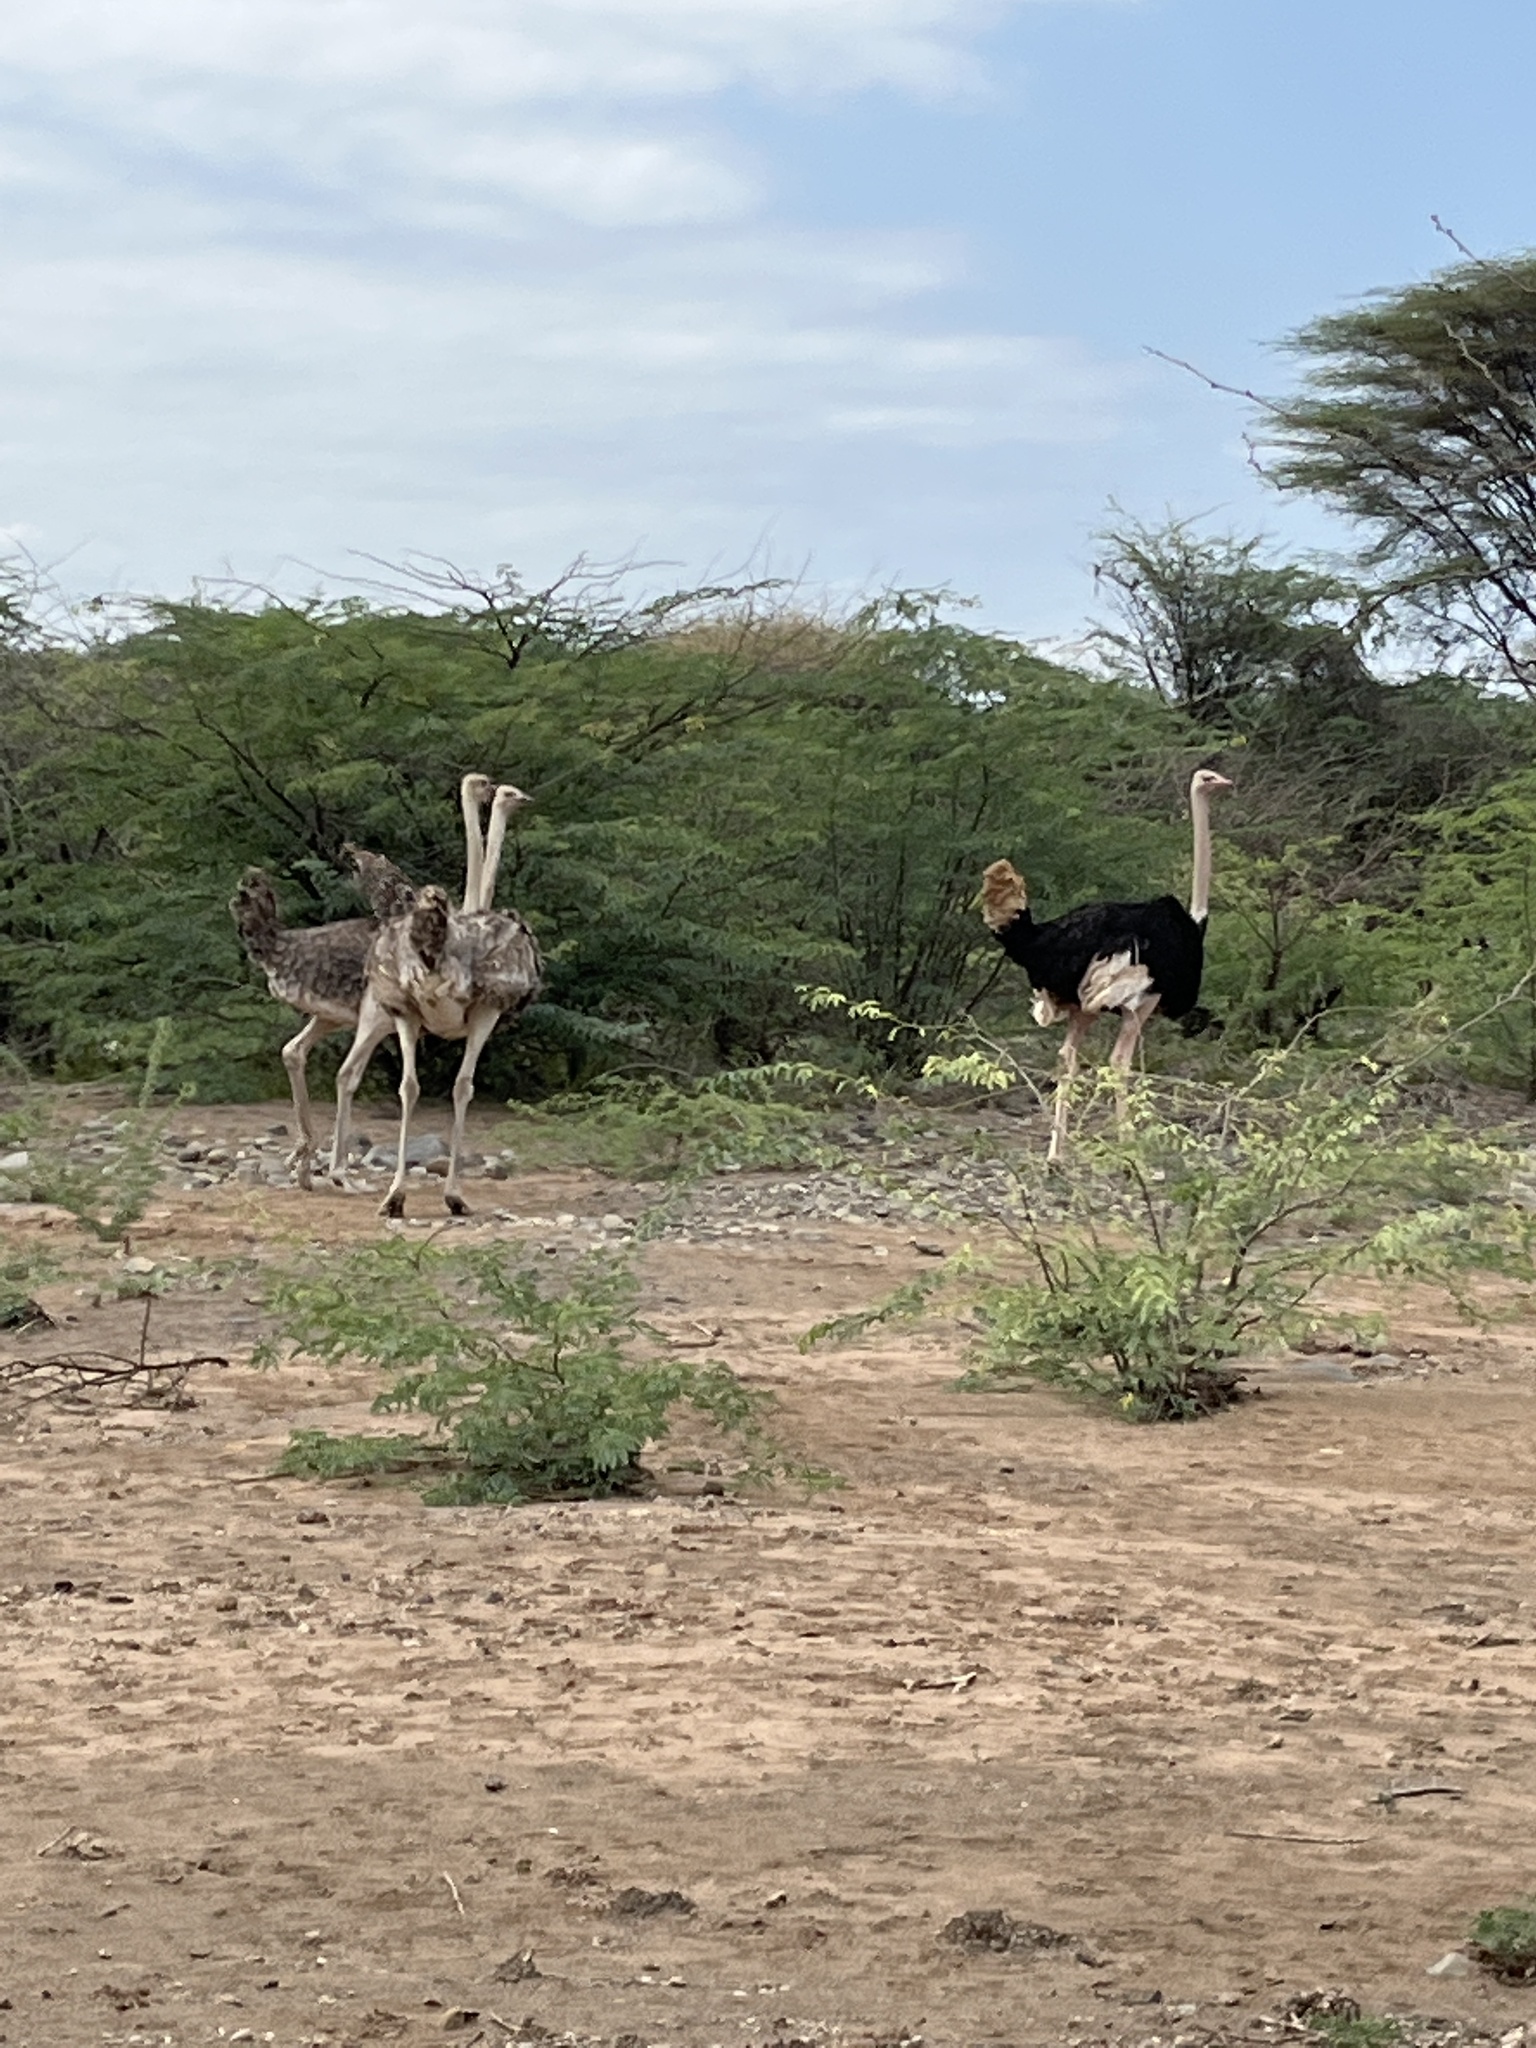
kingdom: Animalia
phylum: Chordata
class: Aves
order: Struthioniformes
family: Struthionidae
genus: Struthio
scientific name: Struthio camelus
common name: Common ostrich
